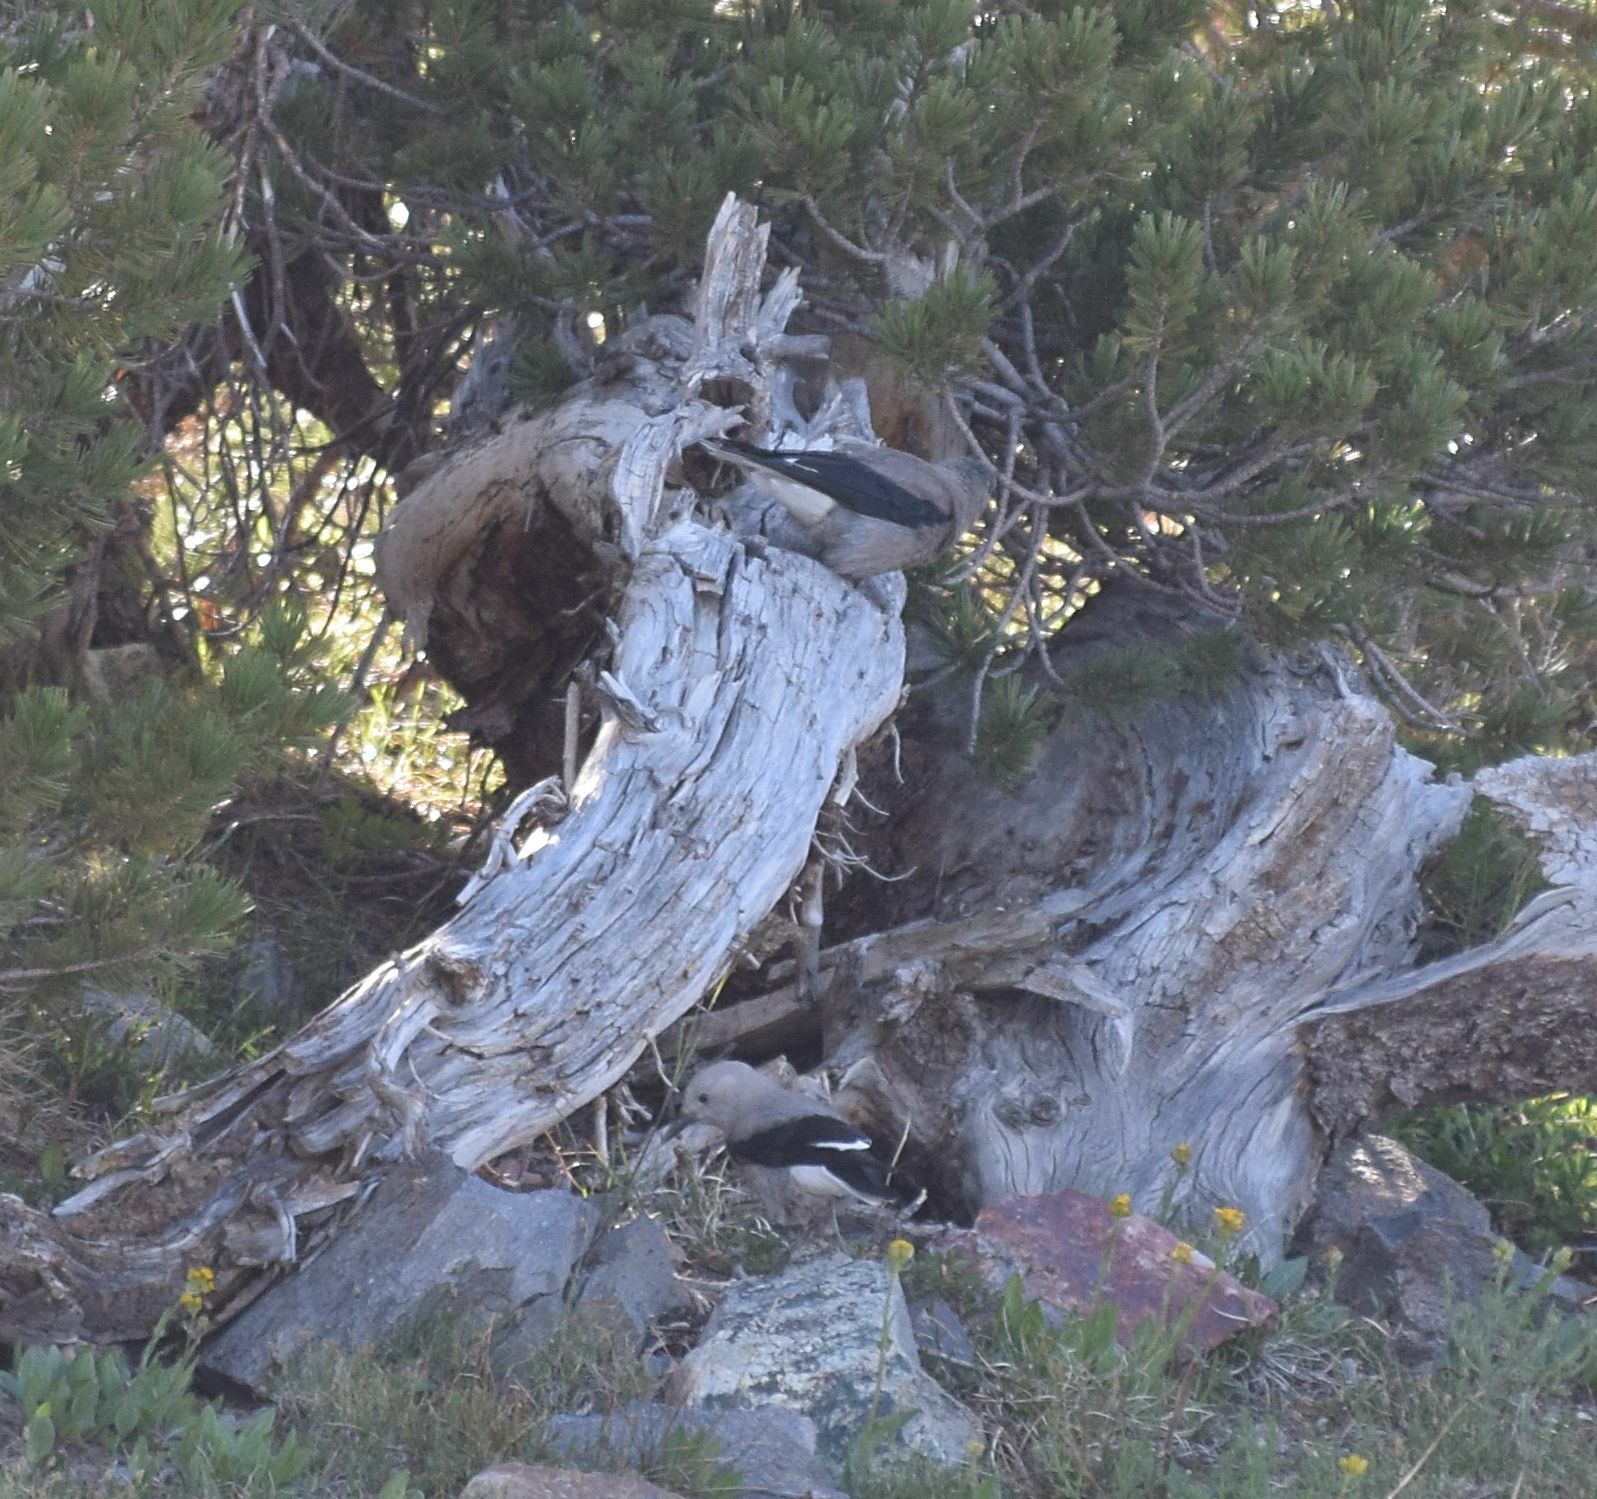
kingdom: Animalia
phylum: Chordata
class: Aves
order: Passeriformes
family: Corvidae
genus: Nucifraga
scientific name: Nucifraga columbiana
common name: Clark's nutcracker
